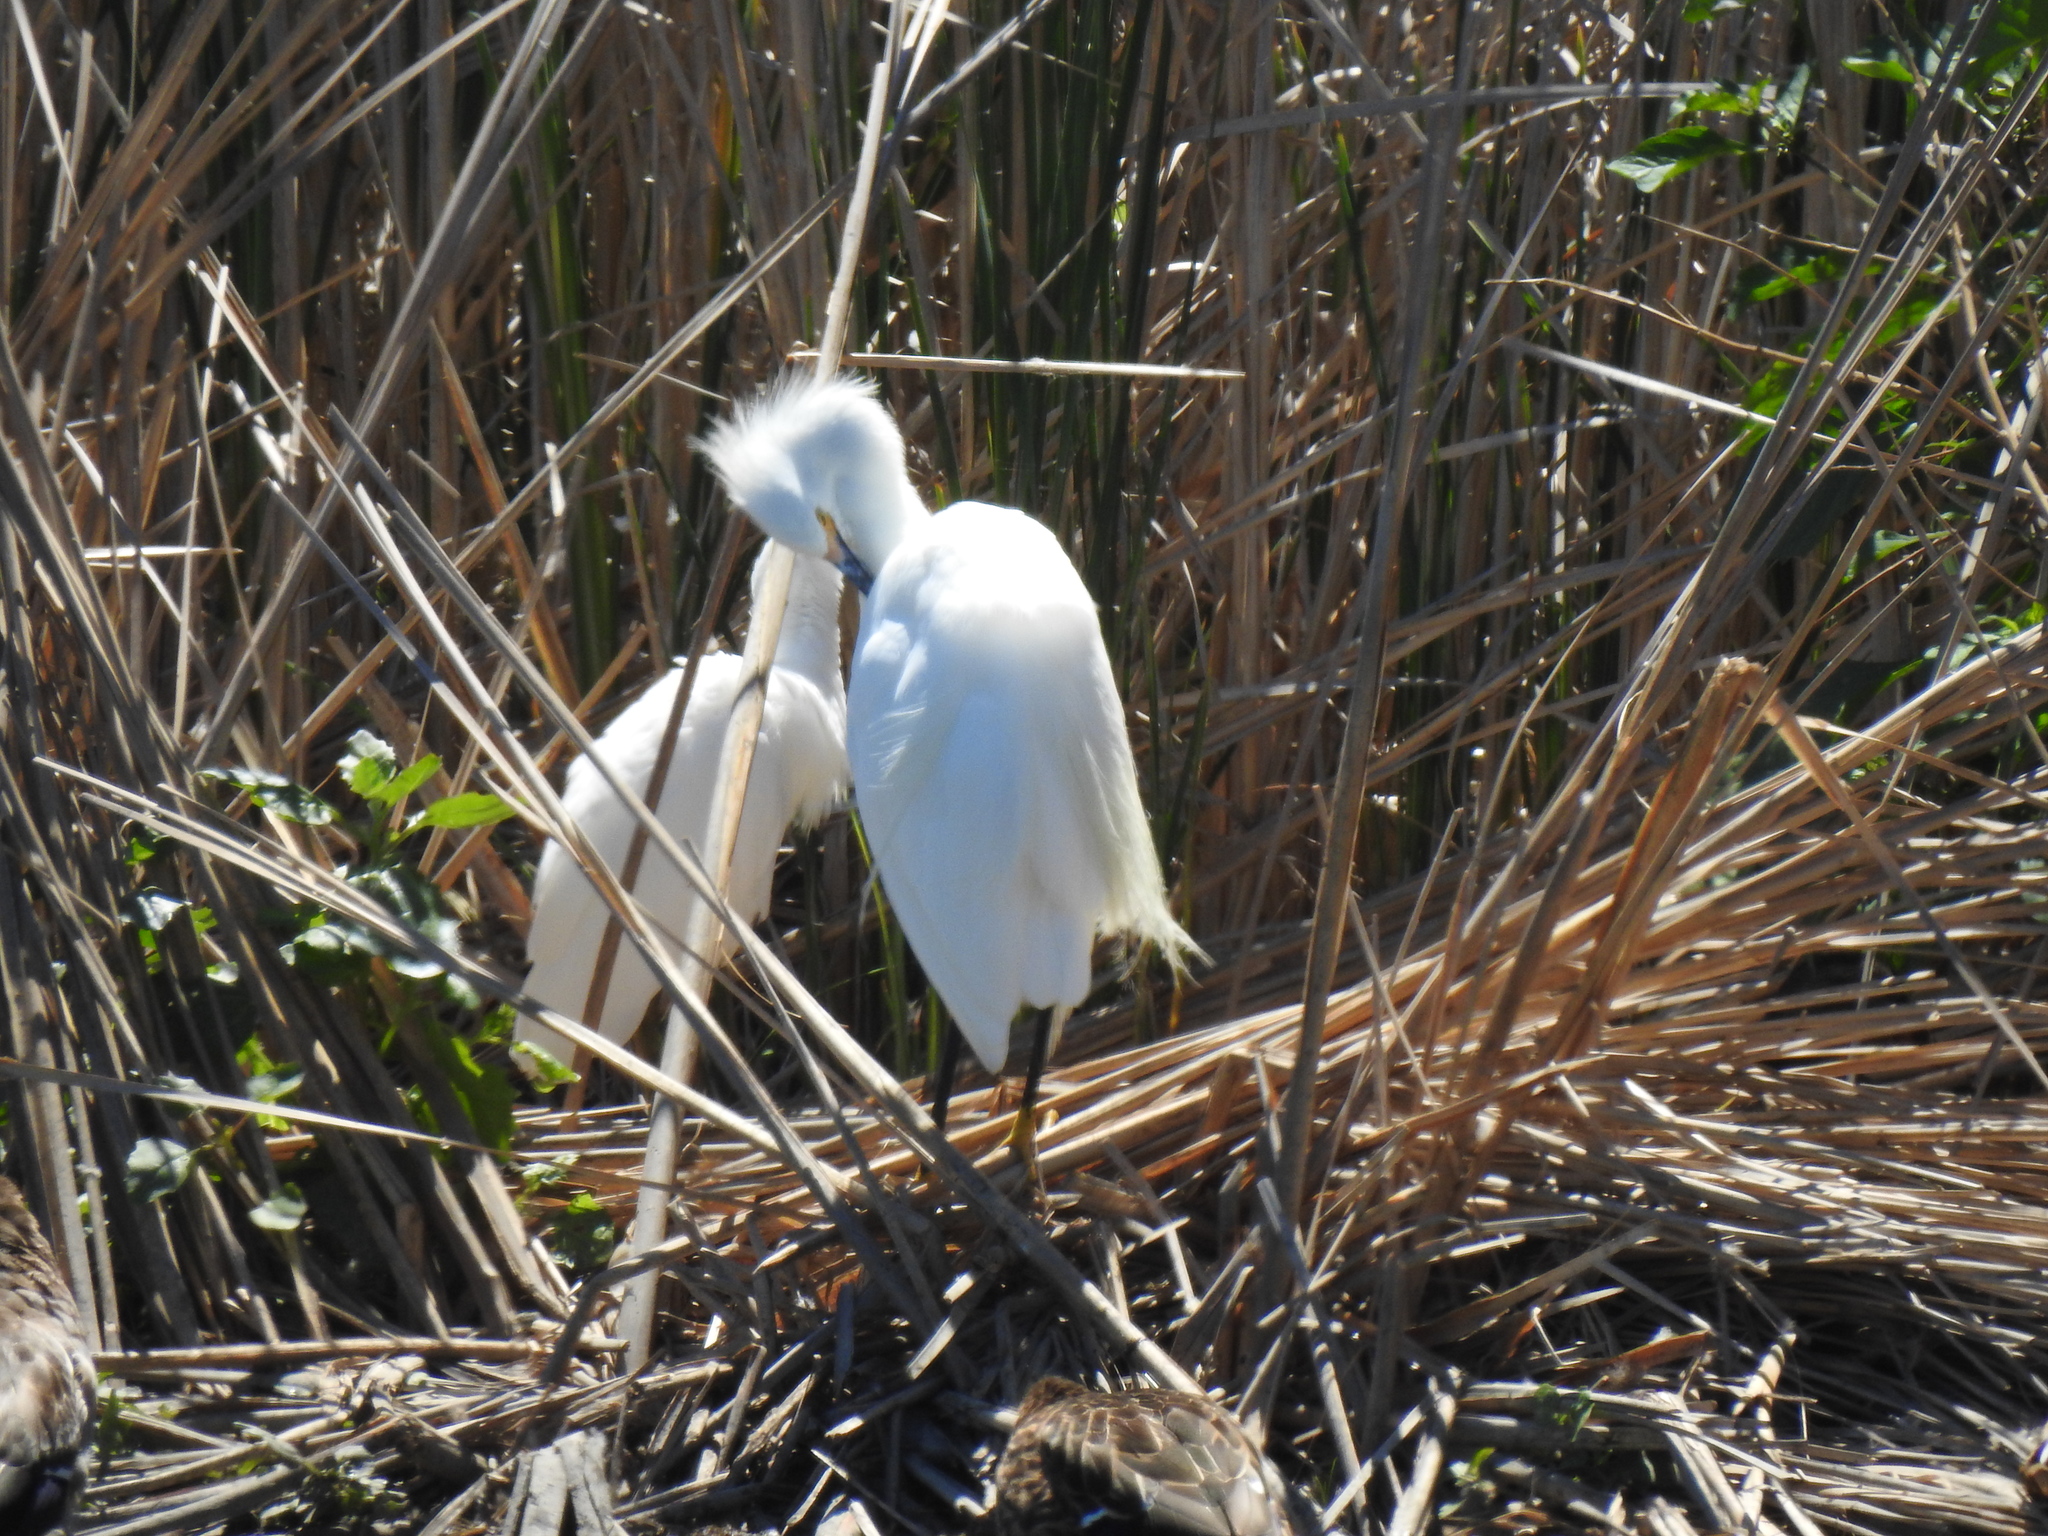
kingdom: Animalia
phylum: Chordata
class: Aves
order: Pelecaniformes
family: Ardeidae
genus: Egretta
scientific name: Egretta thula
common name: Snowy egret
